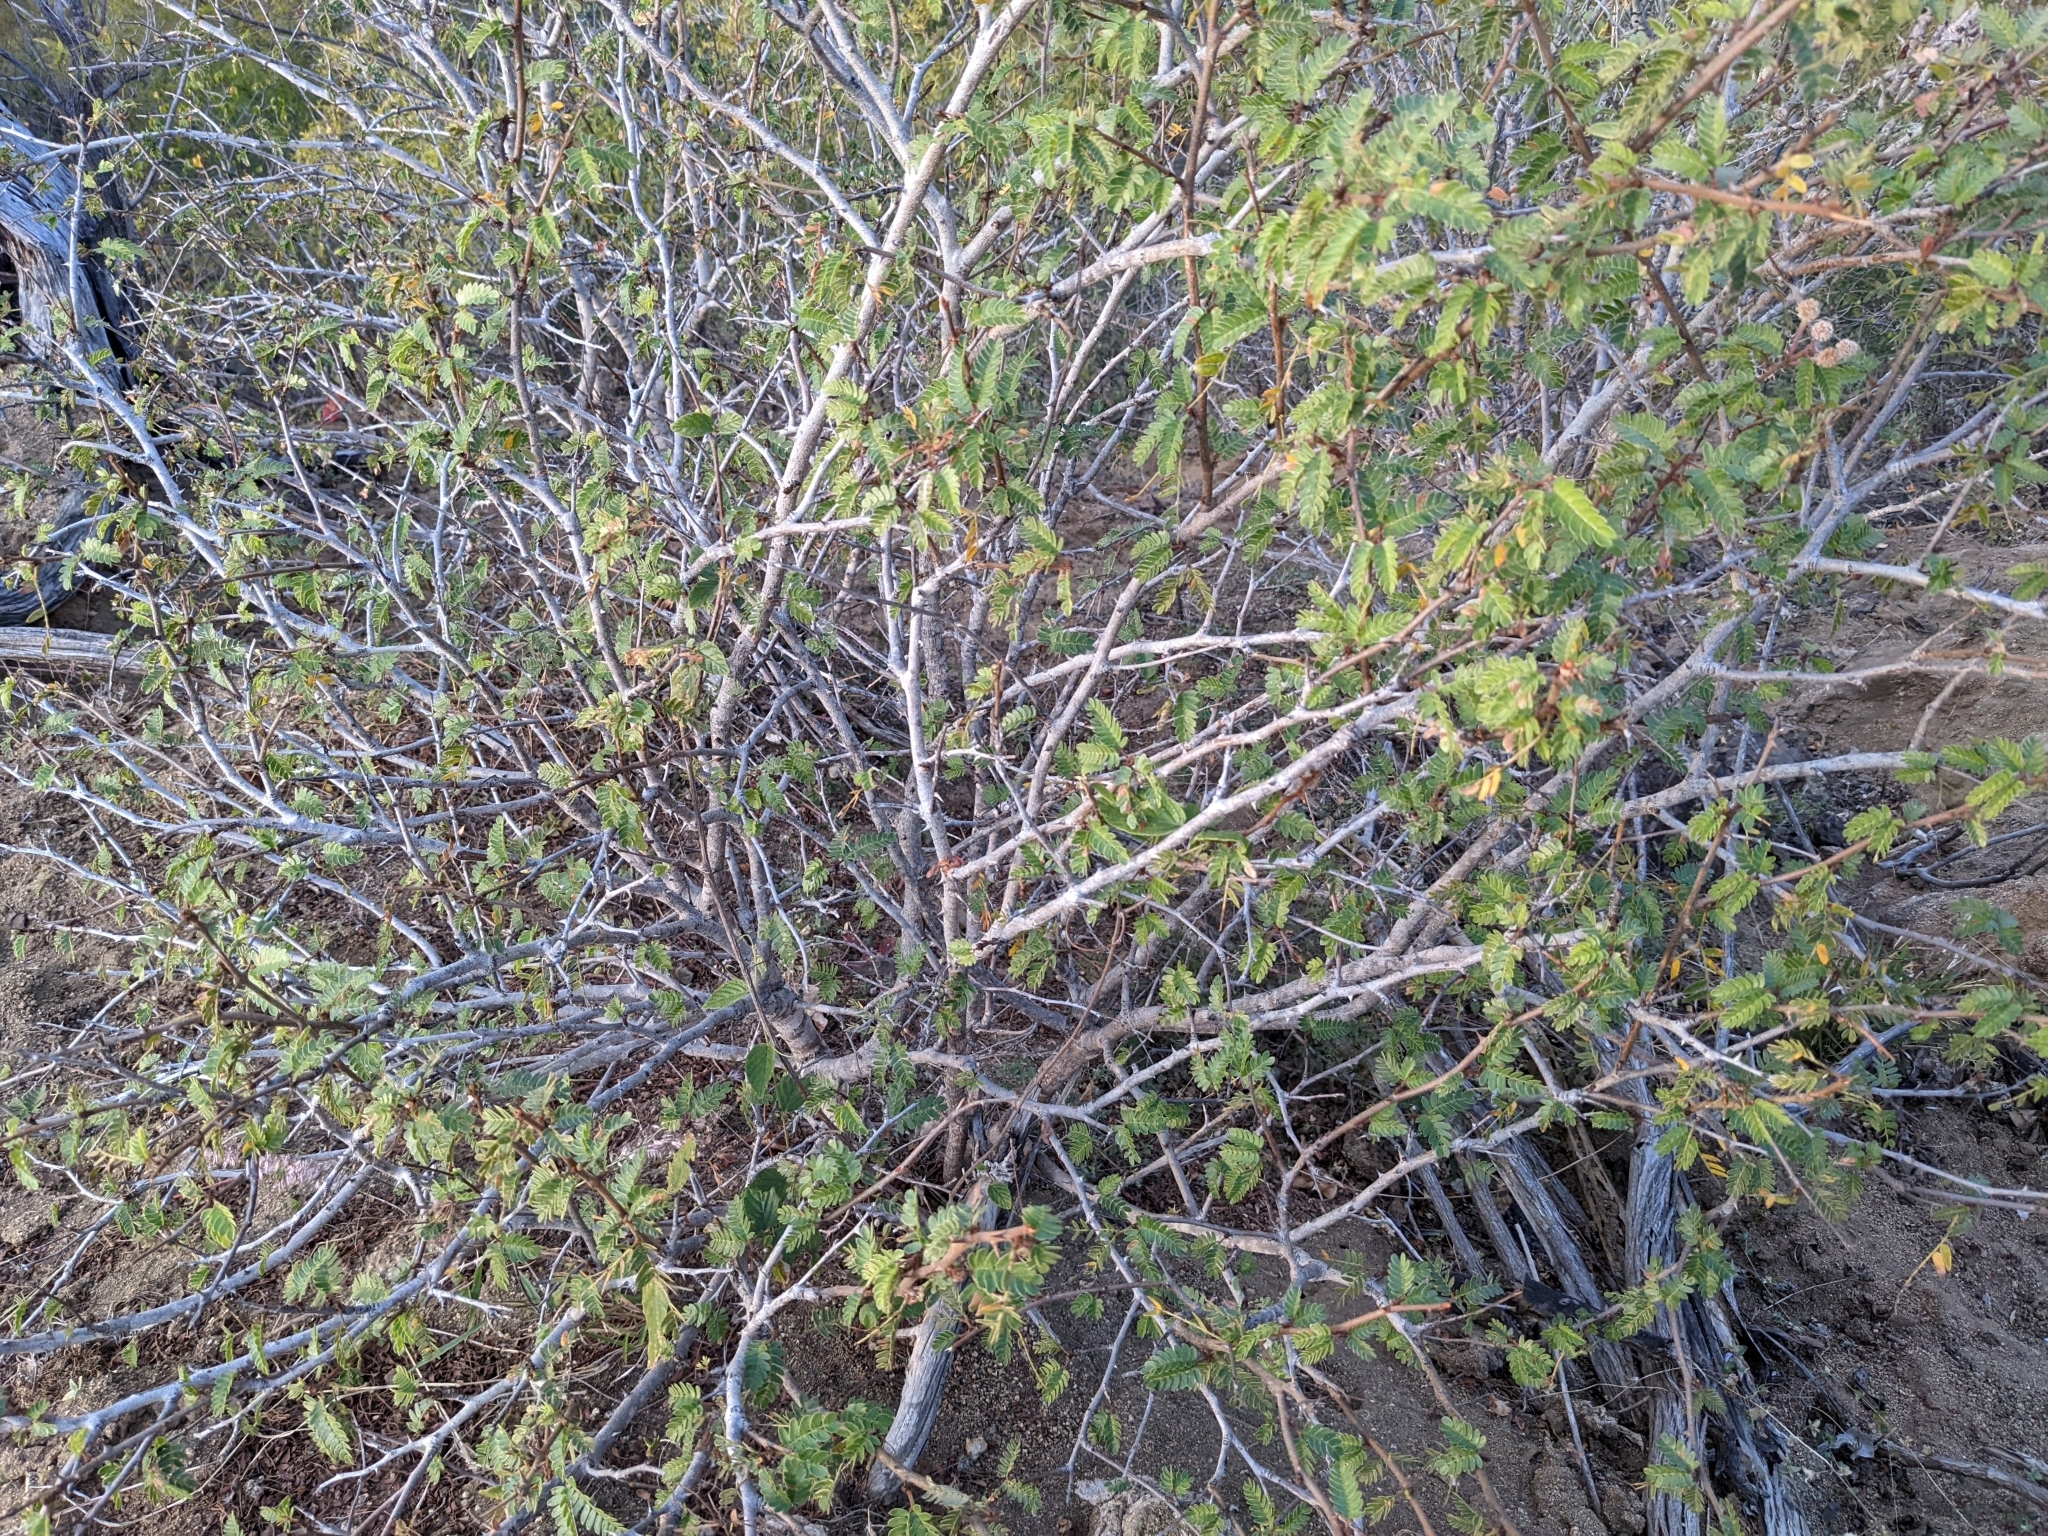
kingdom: Plantae
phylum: Tracheophyta
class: Magnoliopsida
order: Fabales
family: Fabaceae
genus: Mimosa
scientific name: Mimosa tricephala
